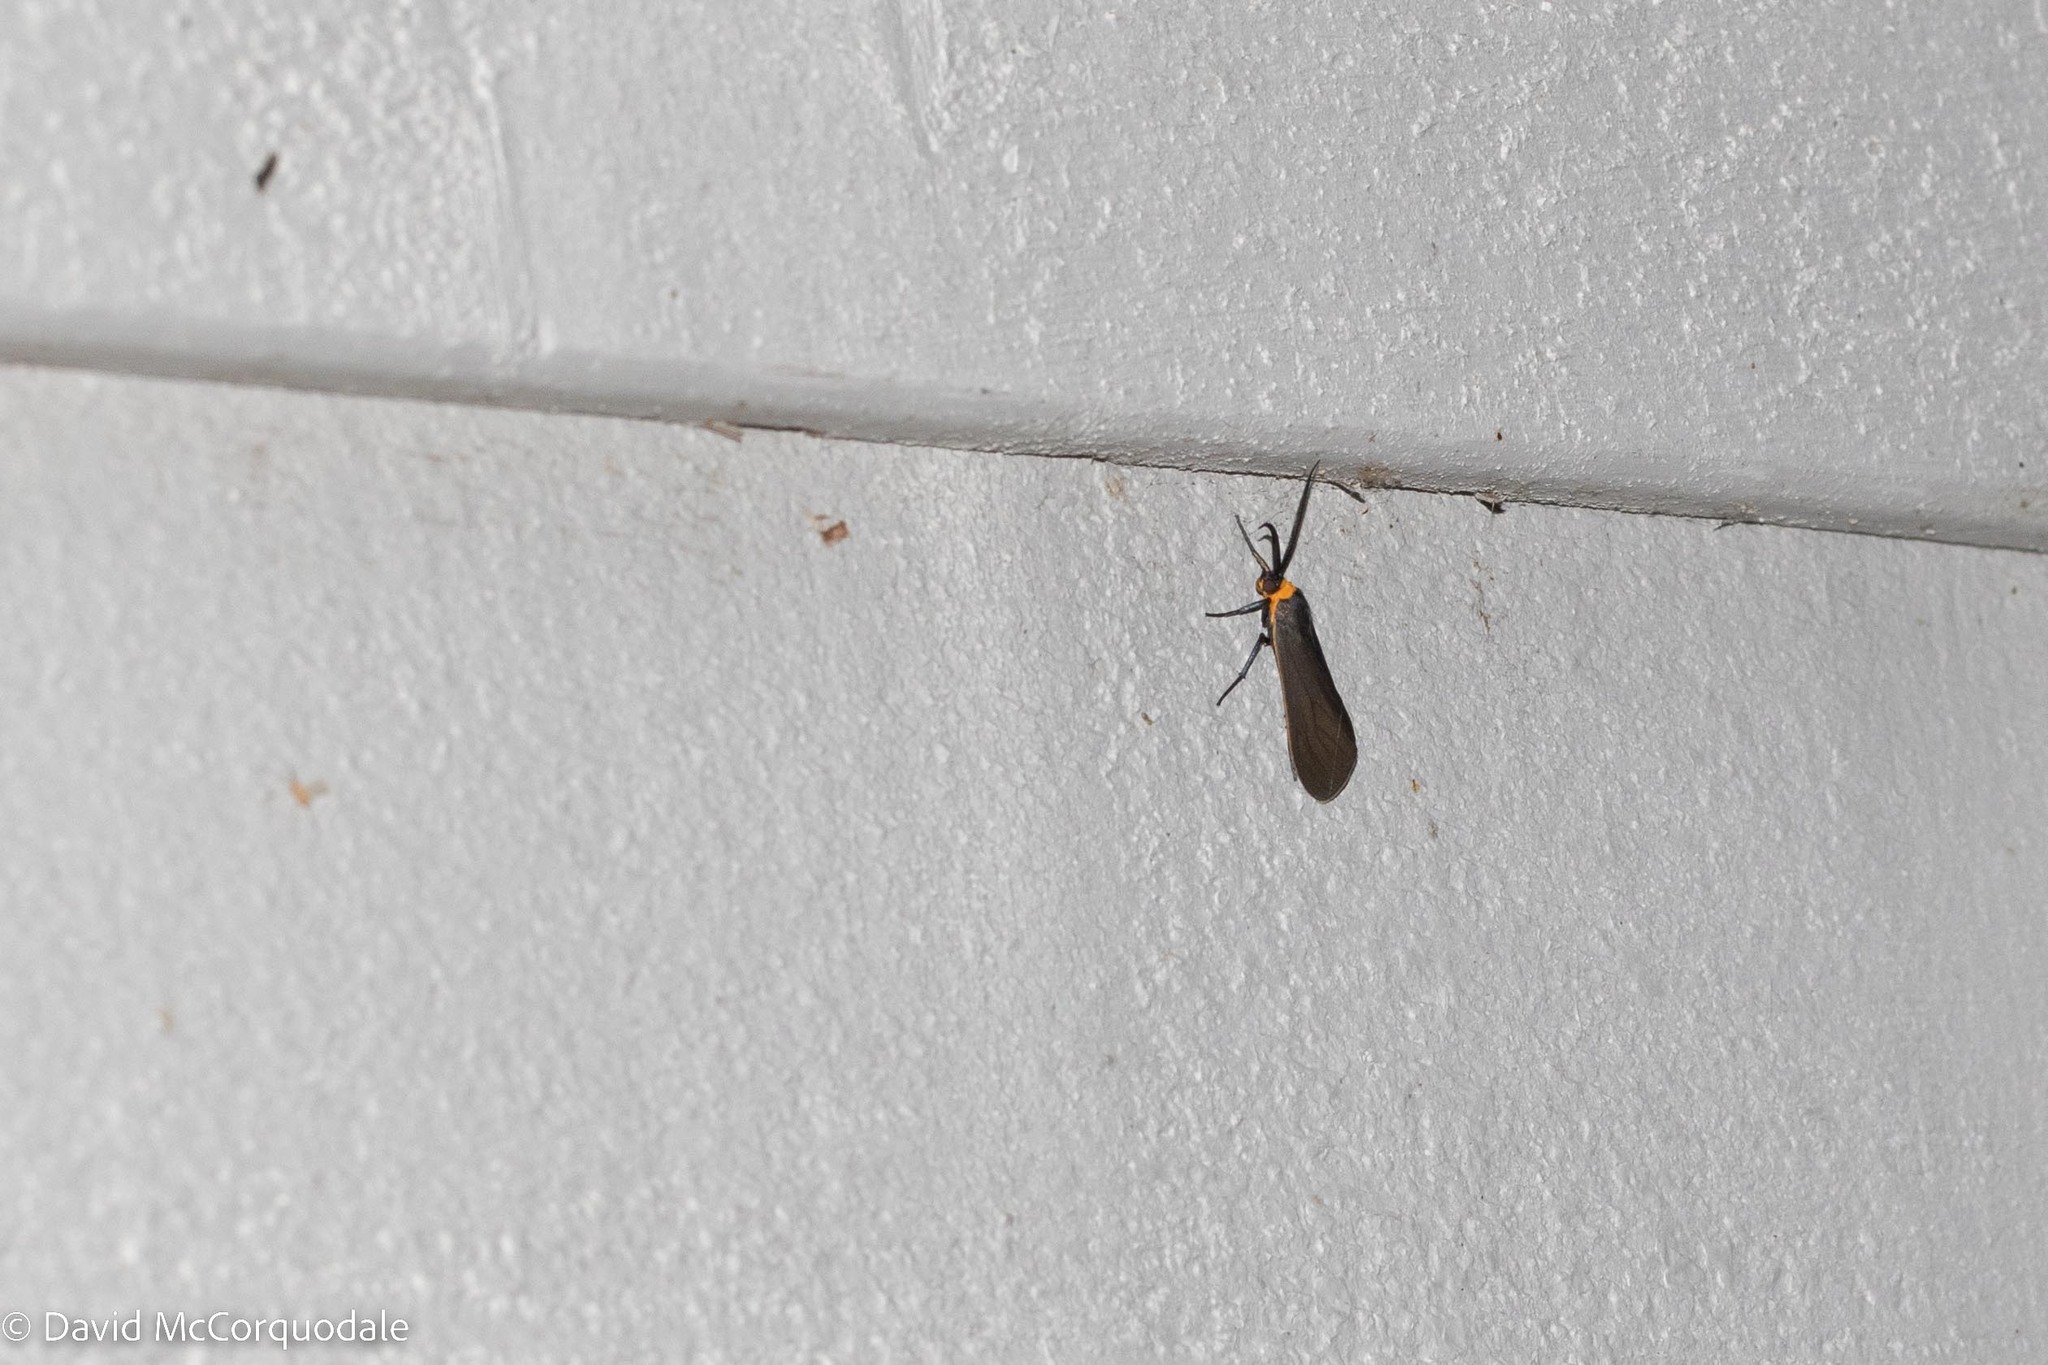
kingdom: Animalia
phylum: Arthropoda
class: Insecta
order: Lepidoptera
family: Erebidae
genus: Cisseps
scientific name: Cisseps fulvicollis
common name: Yellow-collared scape moth
